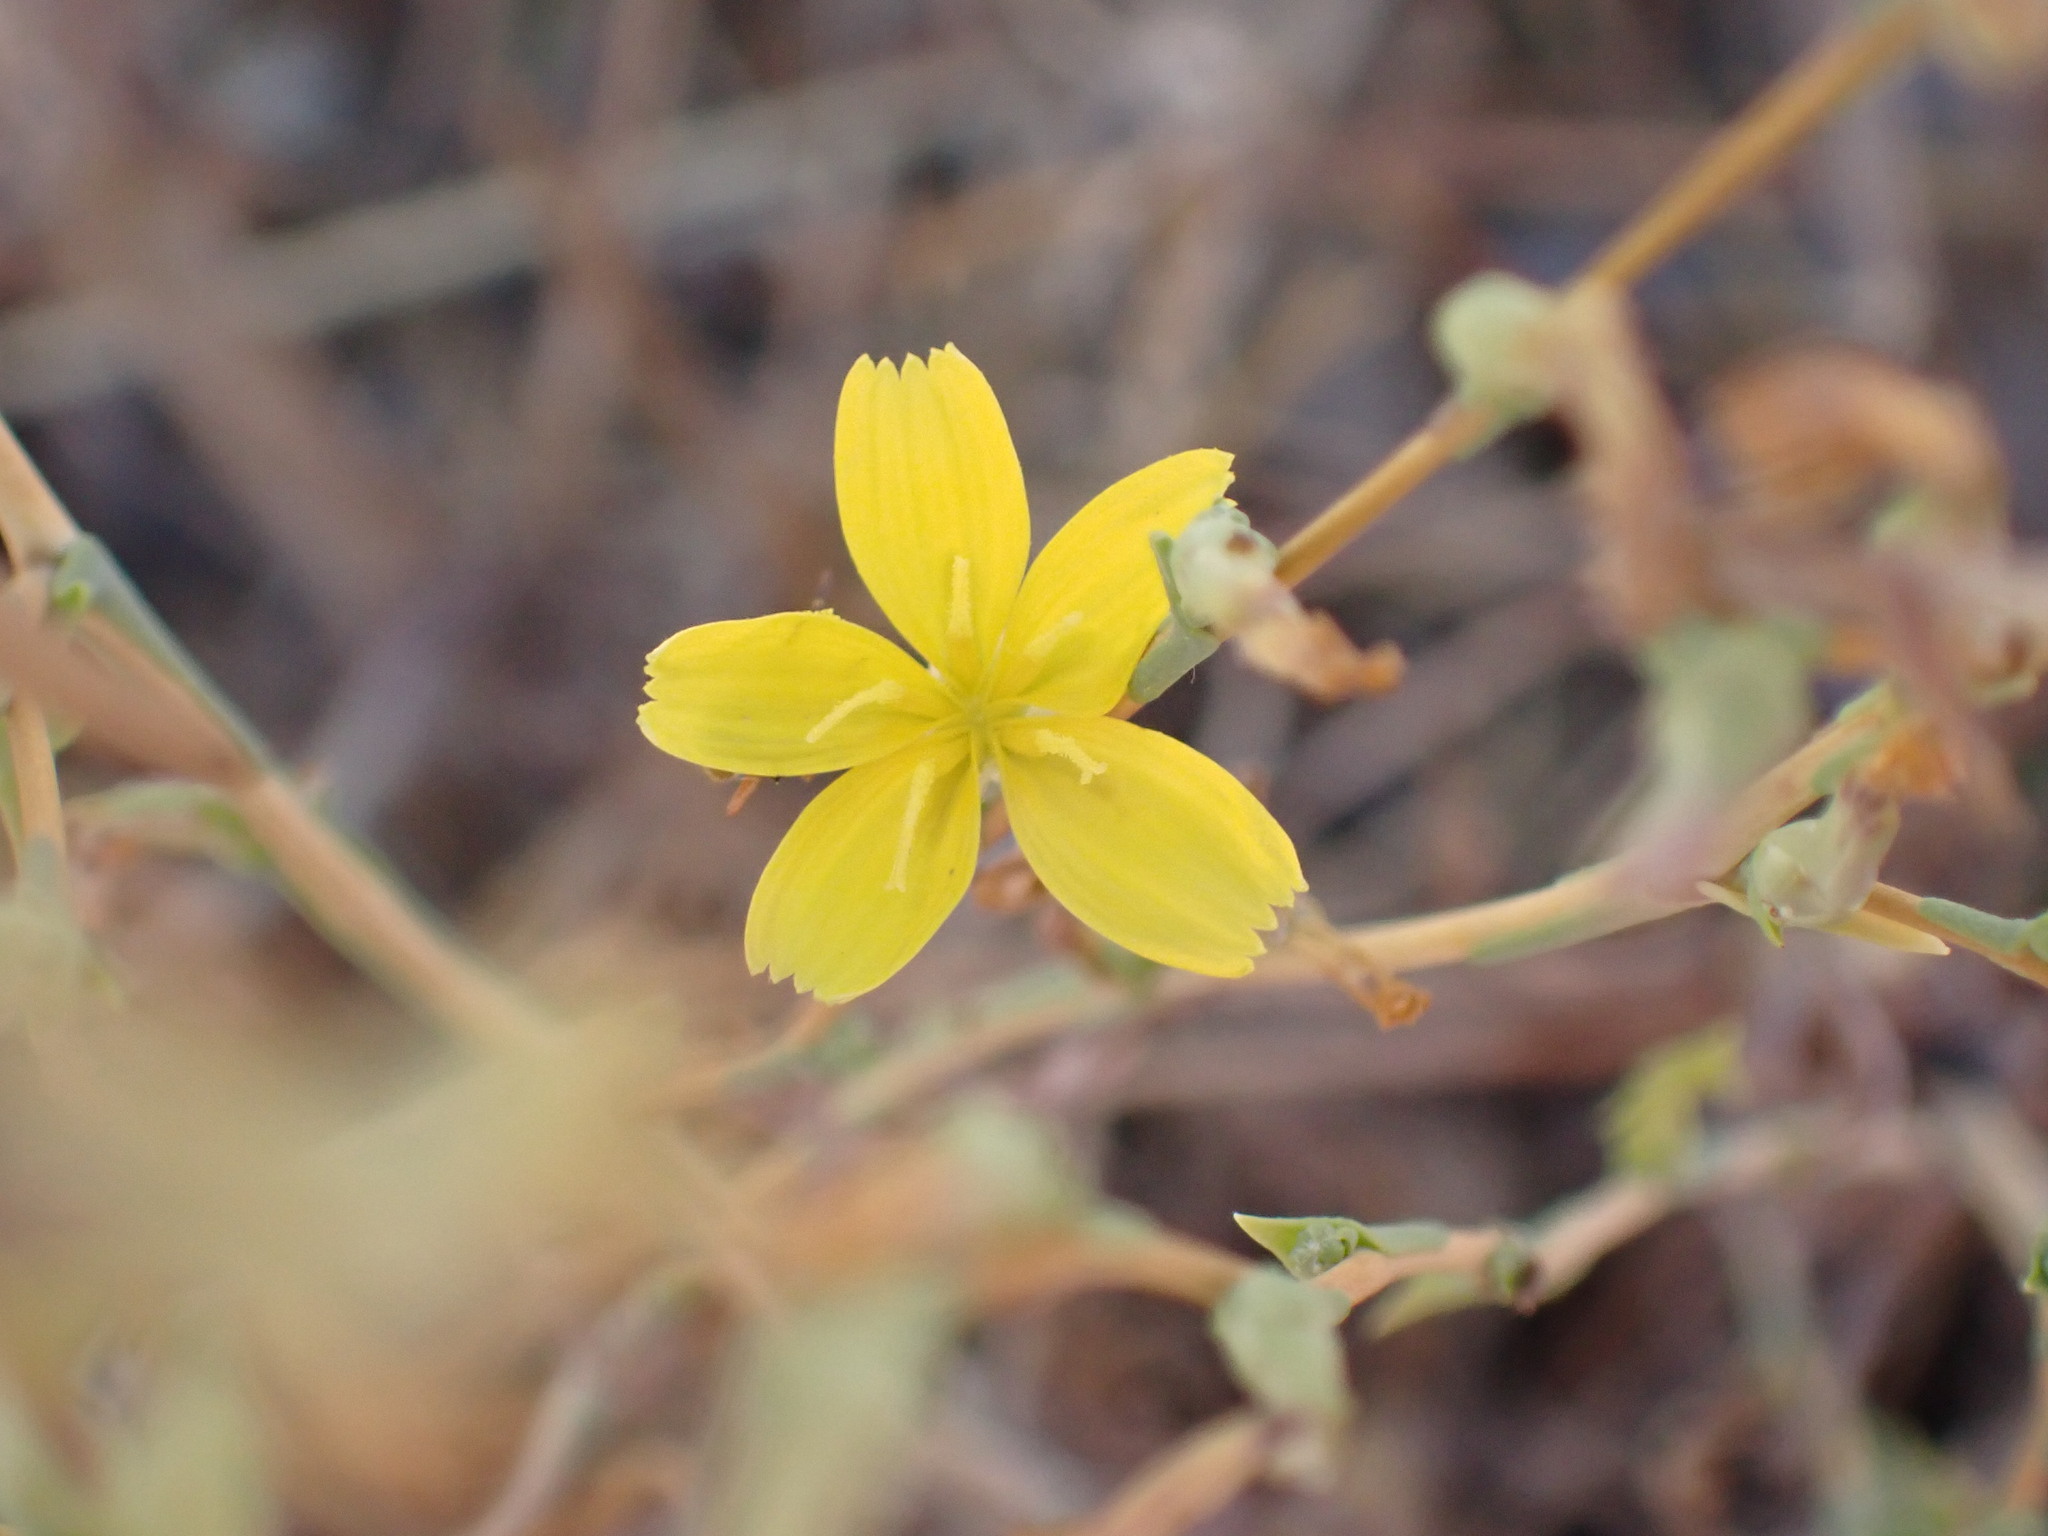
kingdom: Plantae
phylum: Tracheophyta
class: Magnoliopsida
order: Asterales
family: Asteraceae
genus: Lactuca
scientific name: Lactuca viminea
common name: Pliant lettuce
